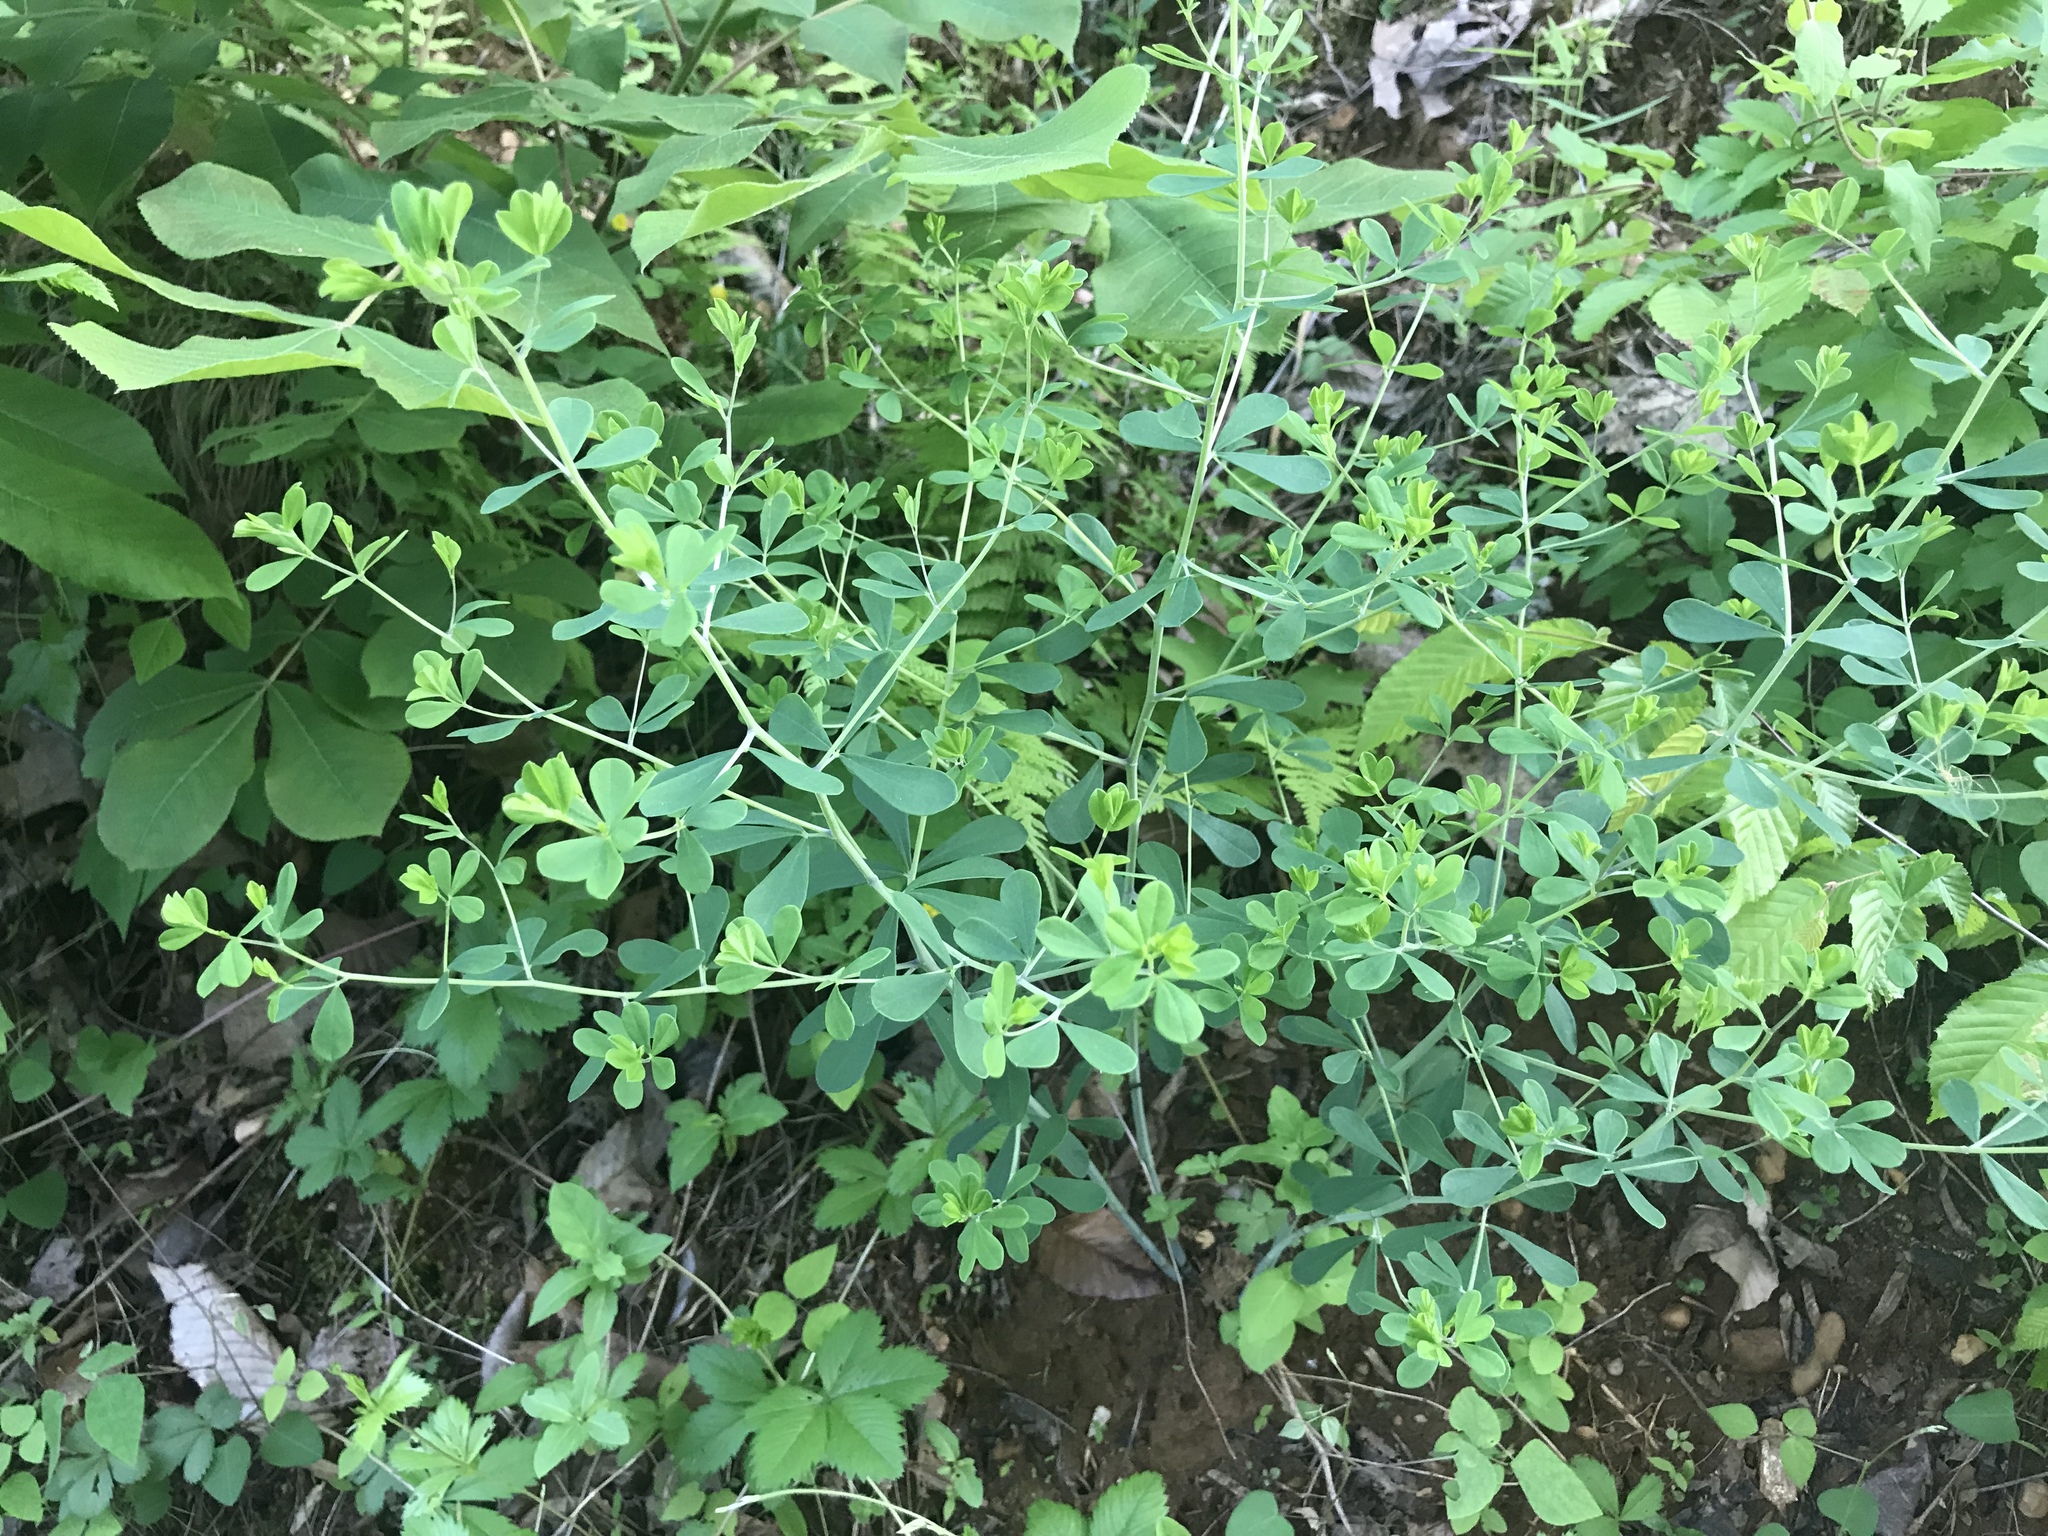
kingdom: Plantae
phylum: Tracheophyta
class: Magnoliopsida
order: Fabales
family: Fabaceae
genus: Baptisia
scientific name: Baptisia tinctoria
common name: Wild indigo
